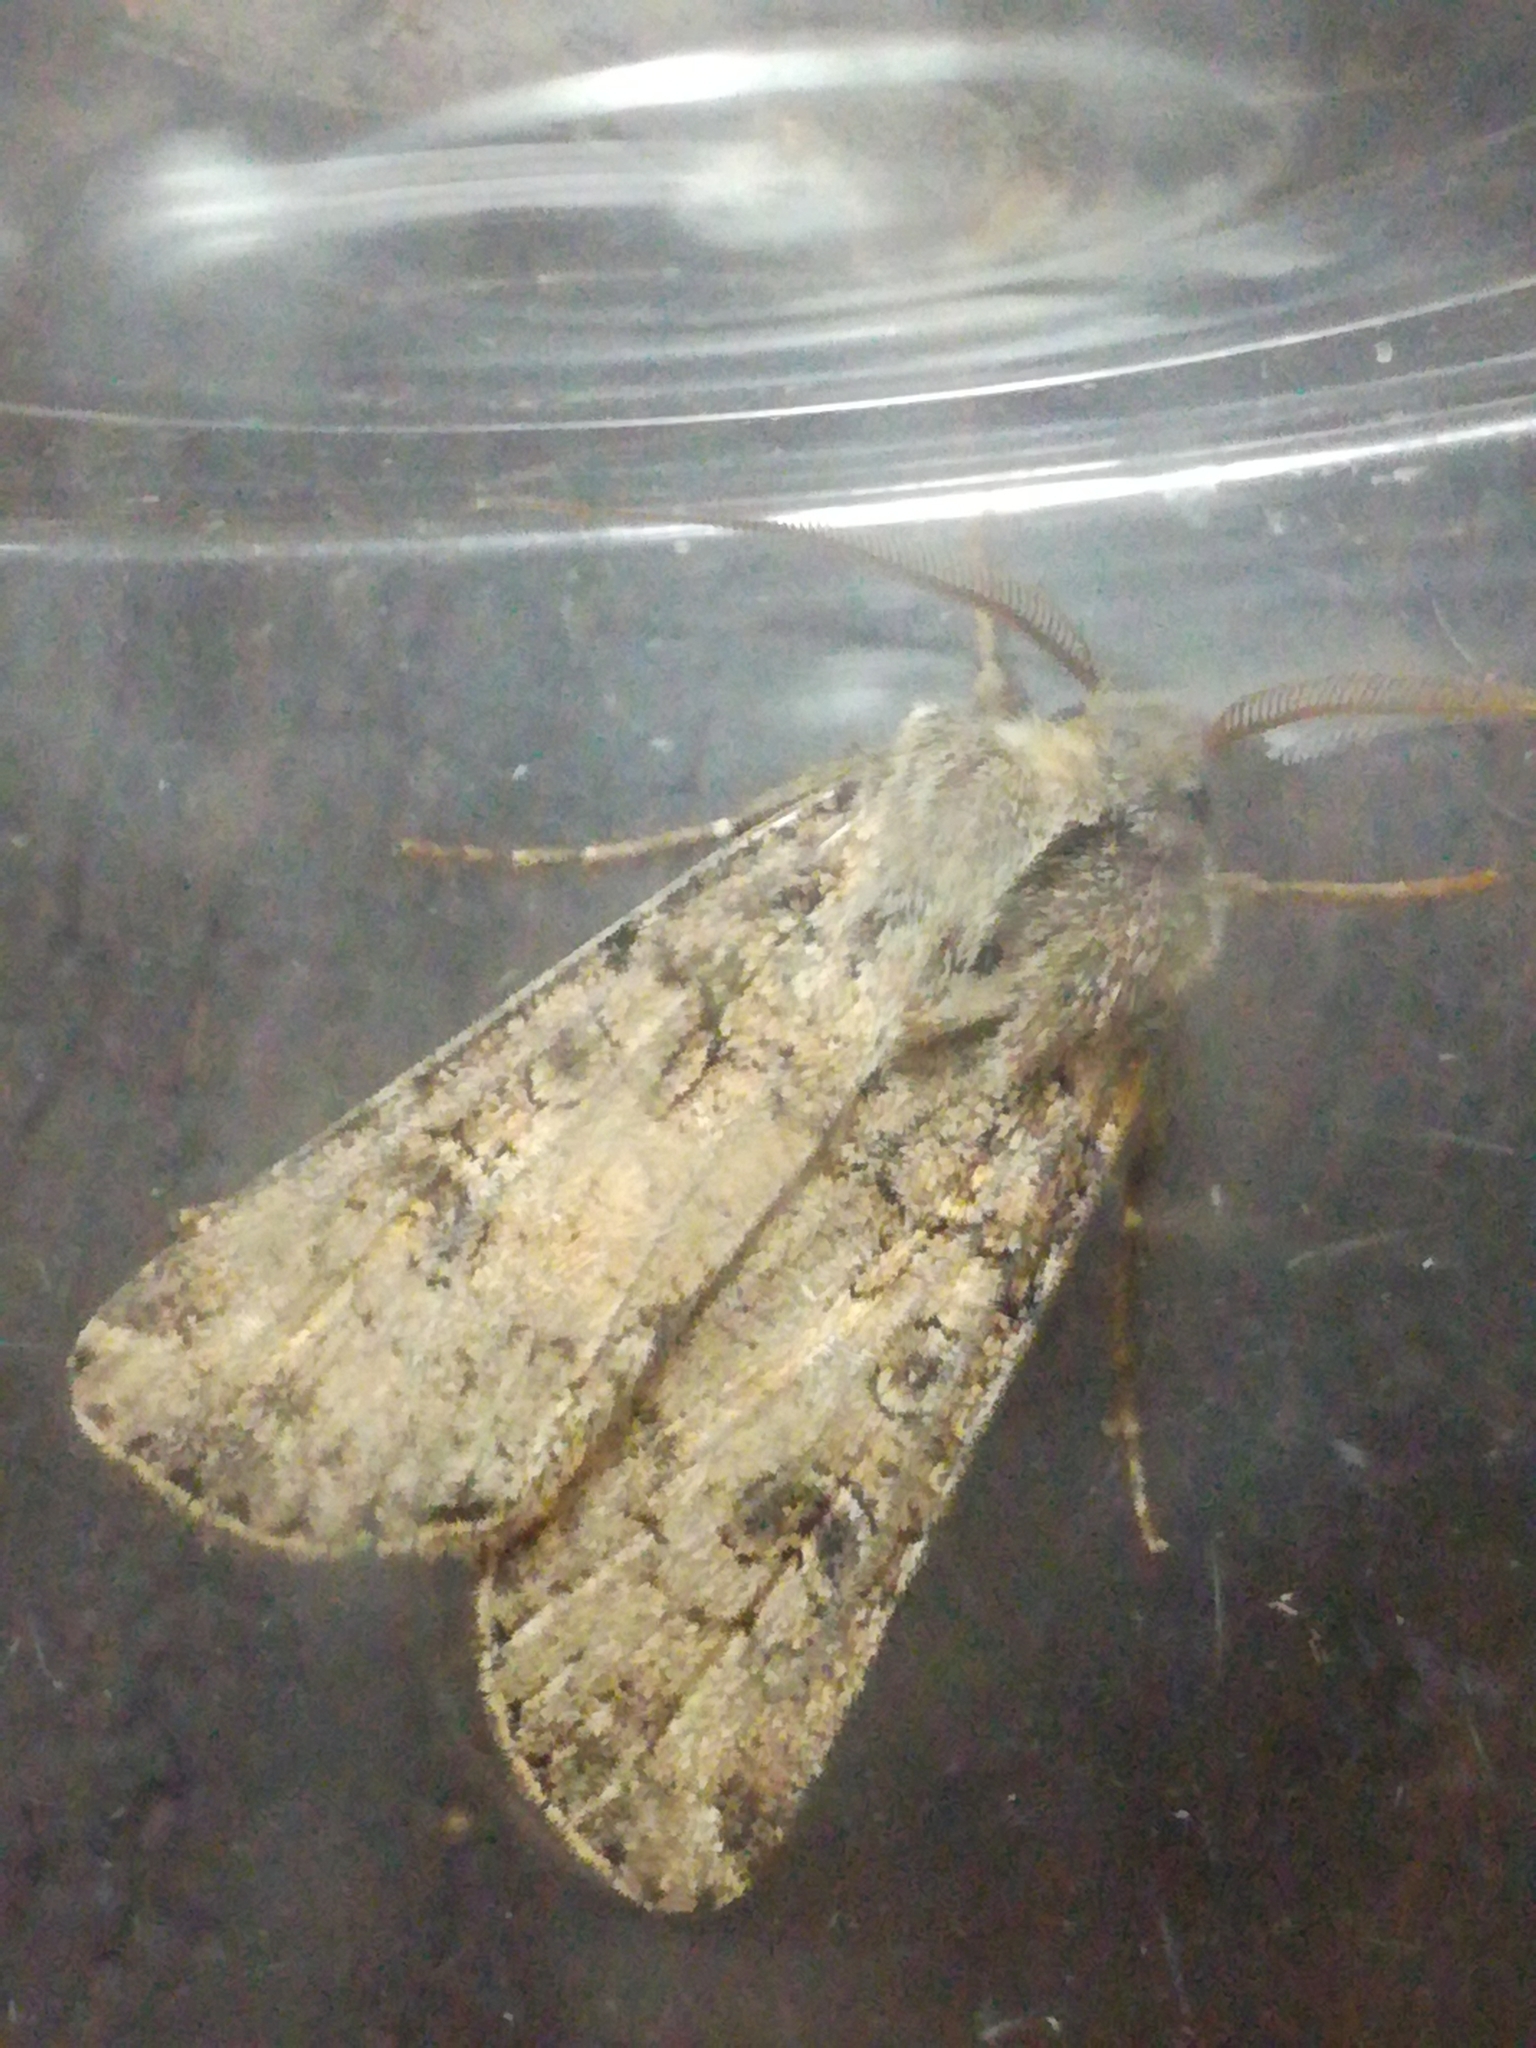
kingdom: Animalia
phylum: Arthropoda
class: Insecta
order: Lepidoptera
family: Noctuidae
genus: Agrotis
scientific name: Agrotis segetum
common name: Turnip moth
